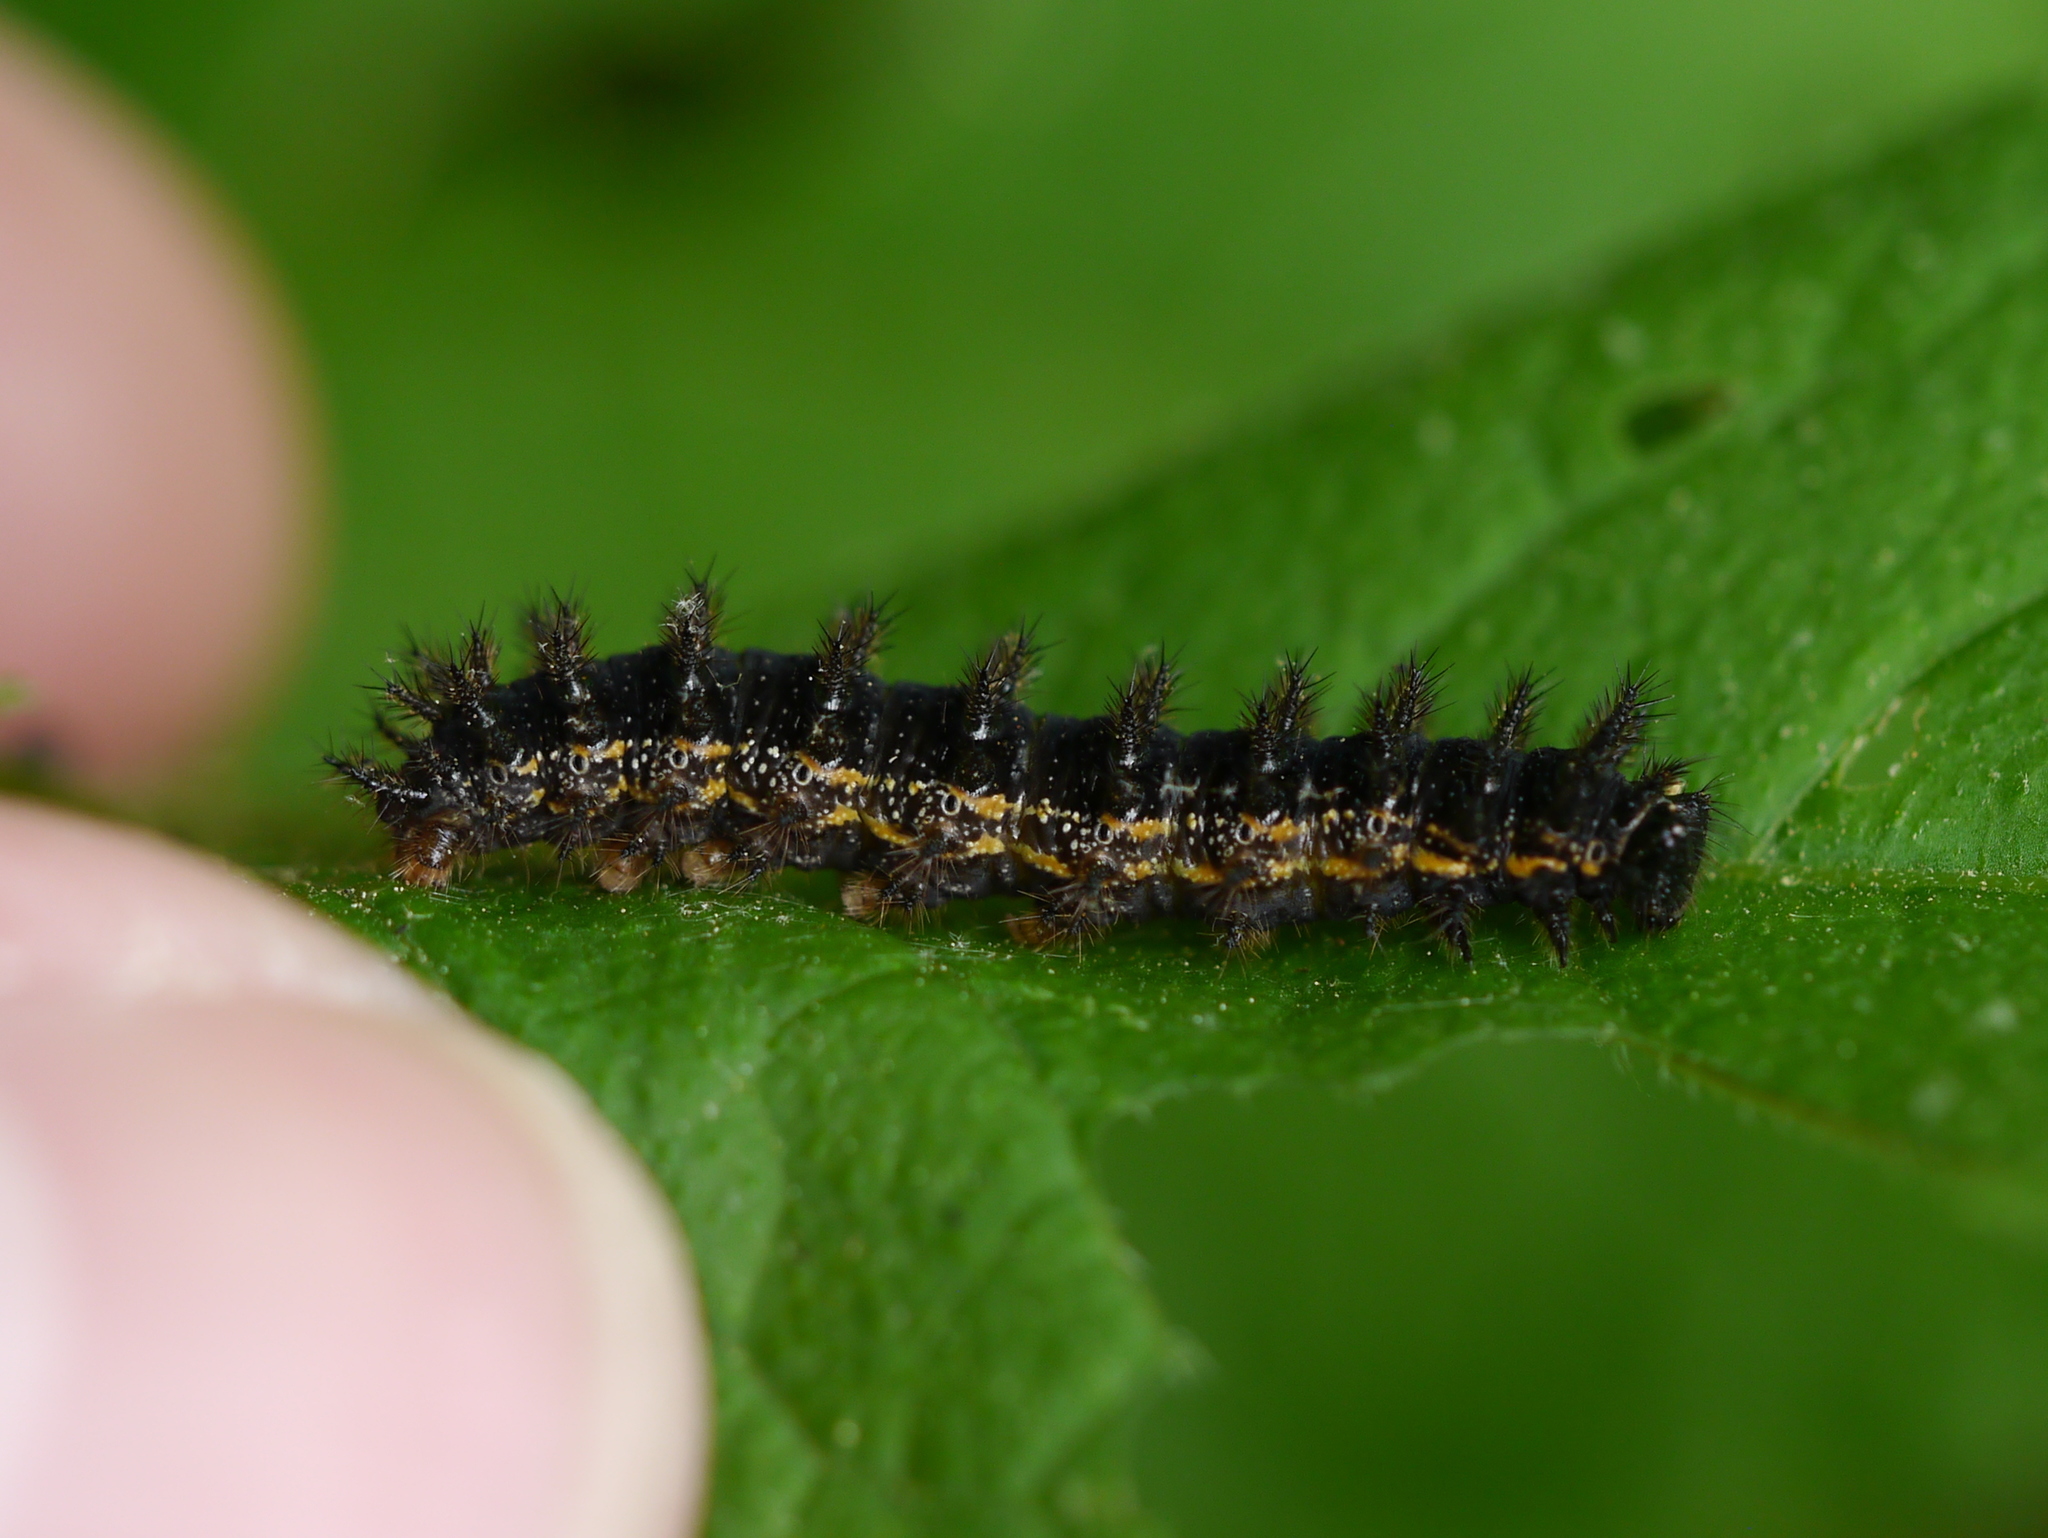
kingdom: Animalia
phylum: Arthropoda
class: Insecta
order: Lepidoptera
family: Nymphalidae
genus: Chlosyne
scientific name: Chlosyne nycteis
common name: Silvery checkerspot
